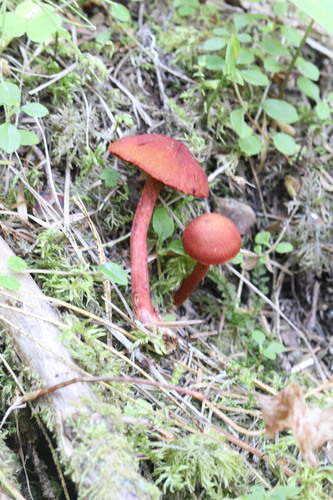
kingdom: Fungi
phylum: Basidiomycota
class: Agaricomycetes
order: Agaricales
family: Cortinariaceae
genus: Cortinarius
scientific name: Cortinarius sanguineus
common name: Bloodred webcap
